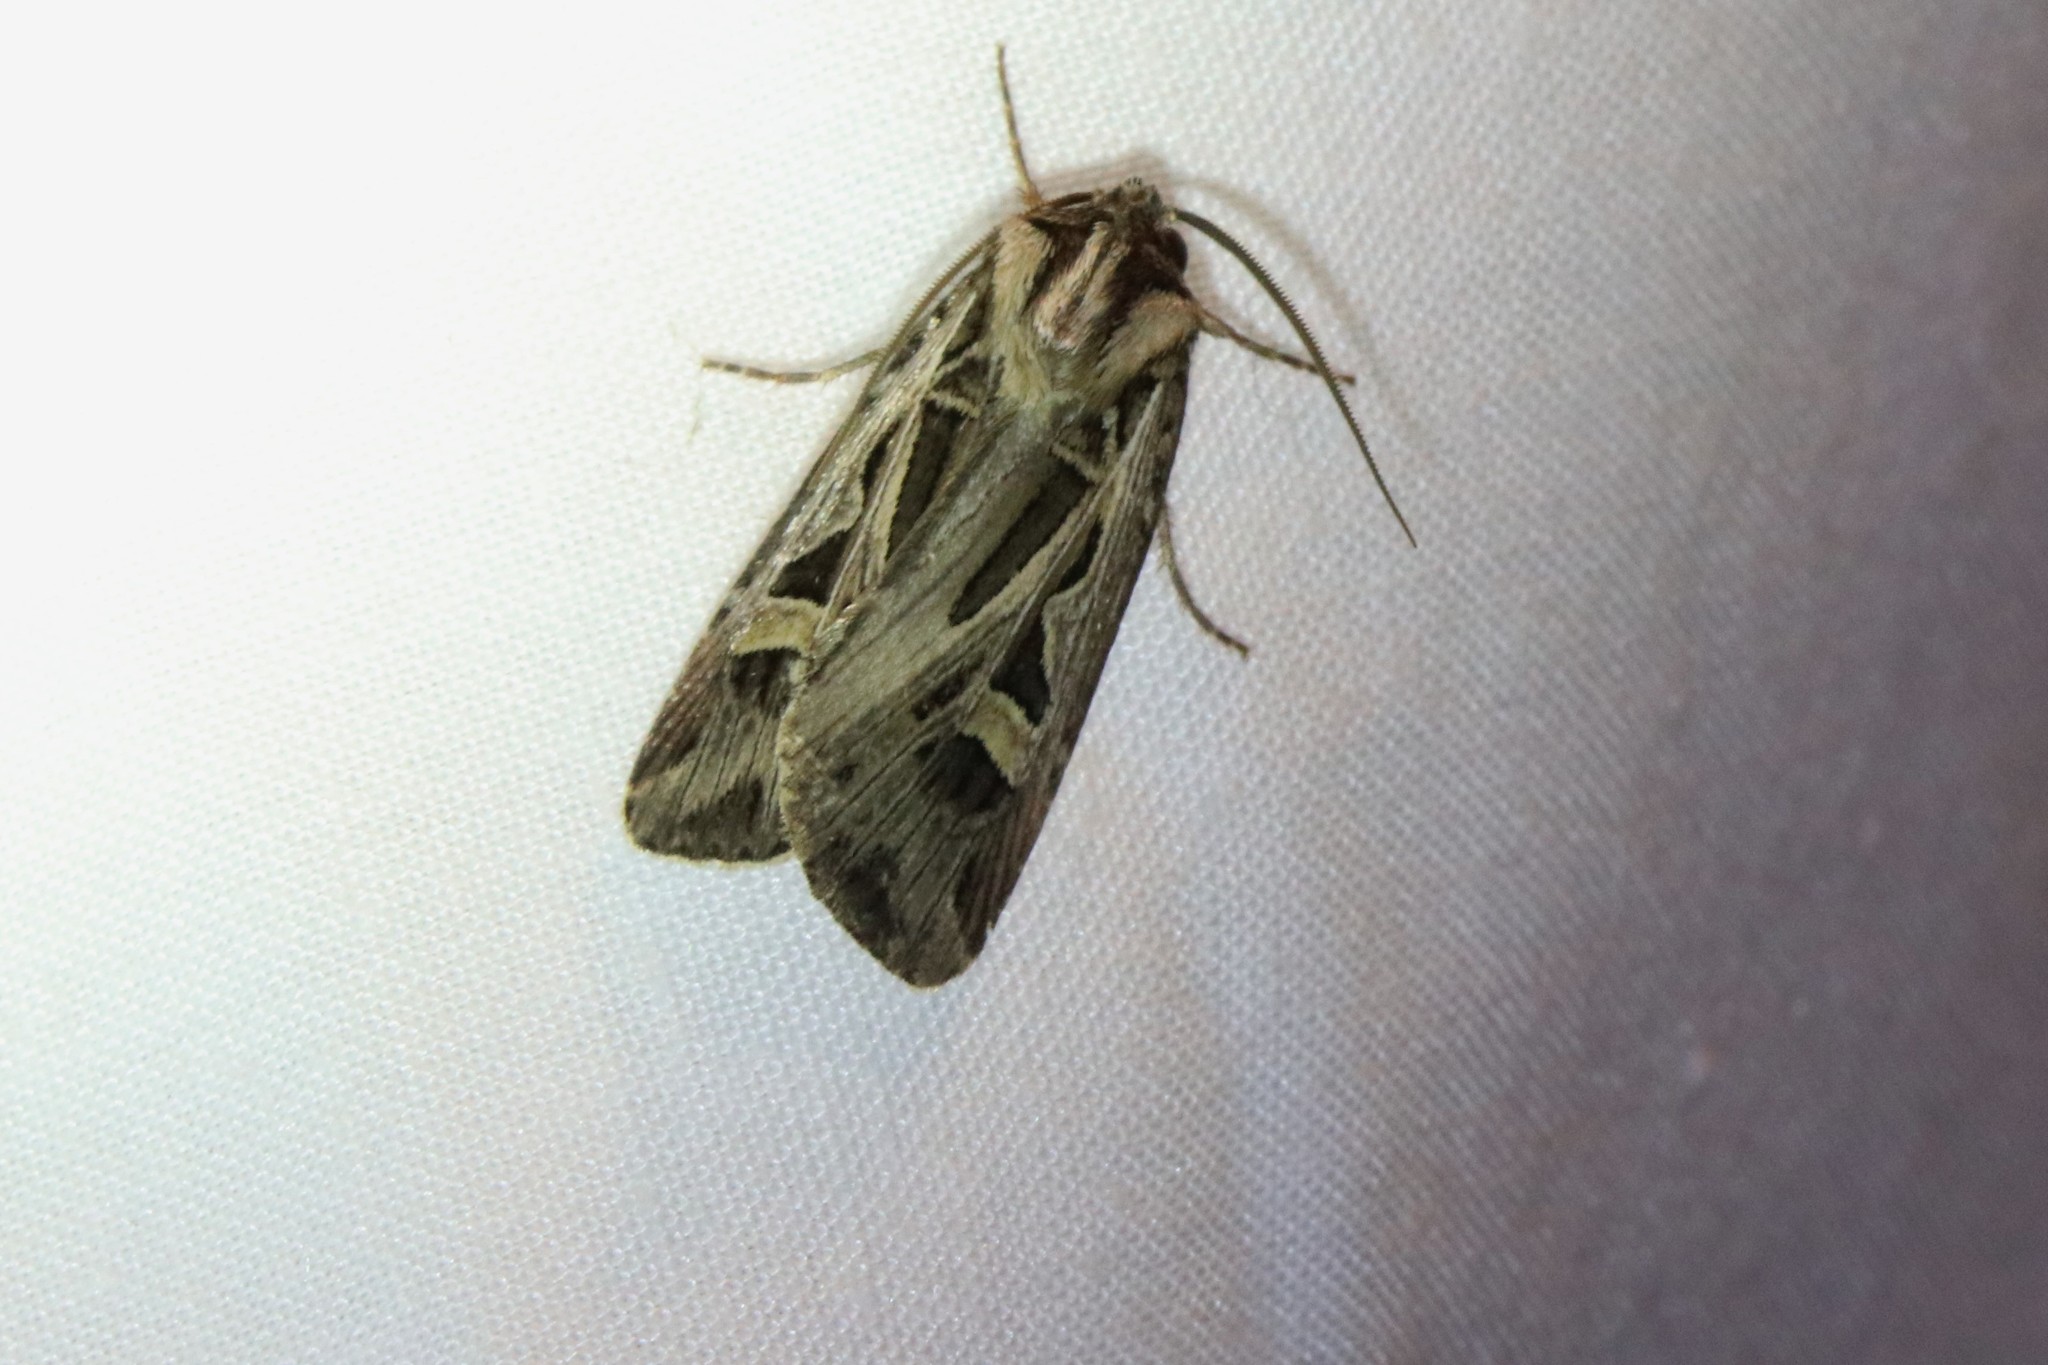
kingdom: Animalia
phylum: Arthropoda
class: Insecta
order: Lepidoptera
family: Noctuidae
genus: Feltia
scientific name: Feltia jaculifera
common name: Dingy cutworm moth
